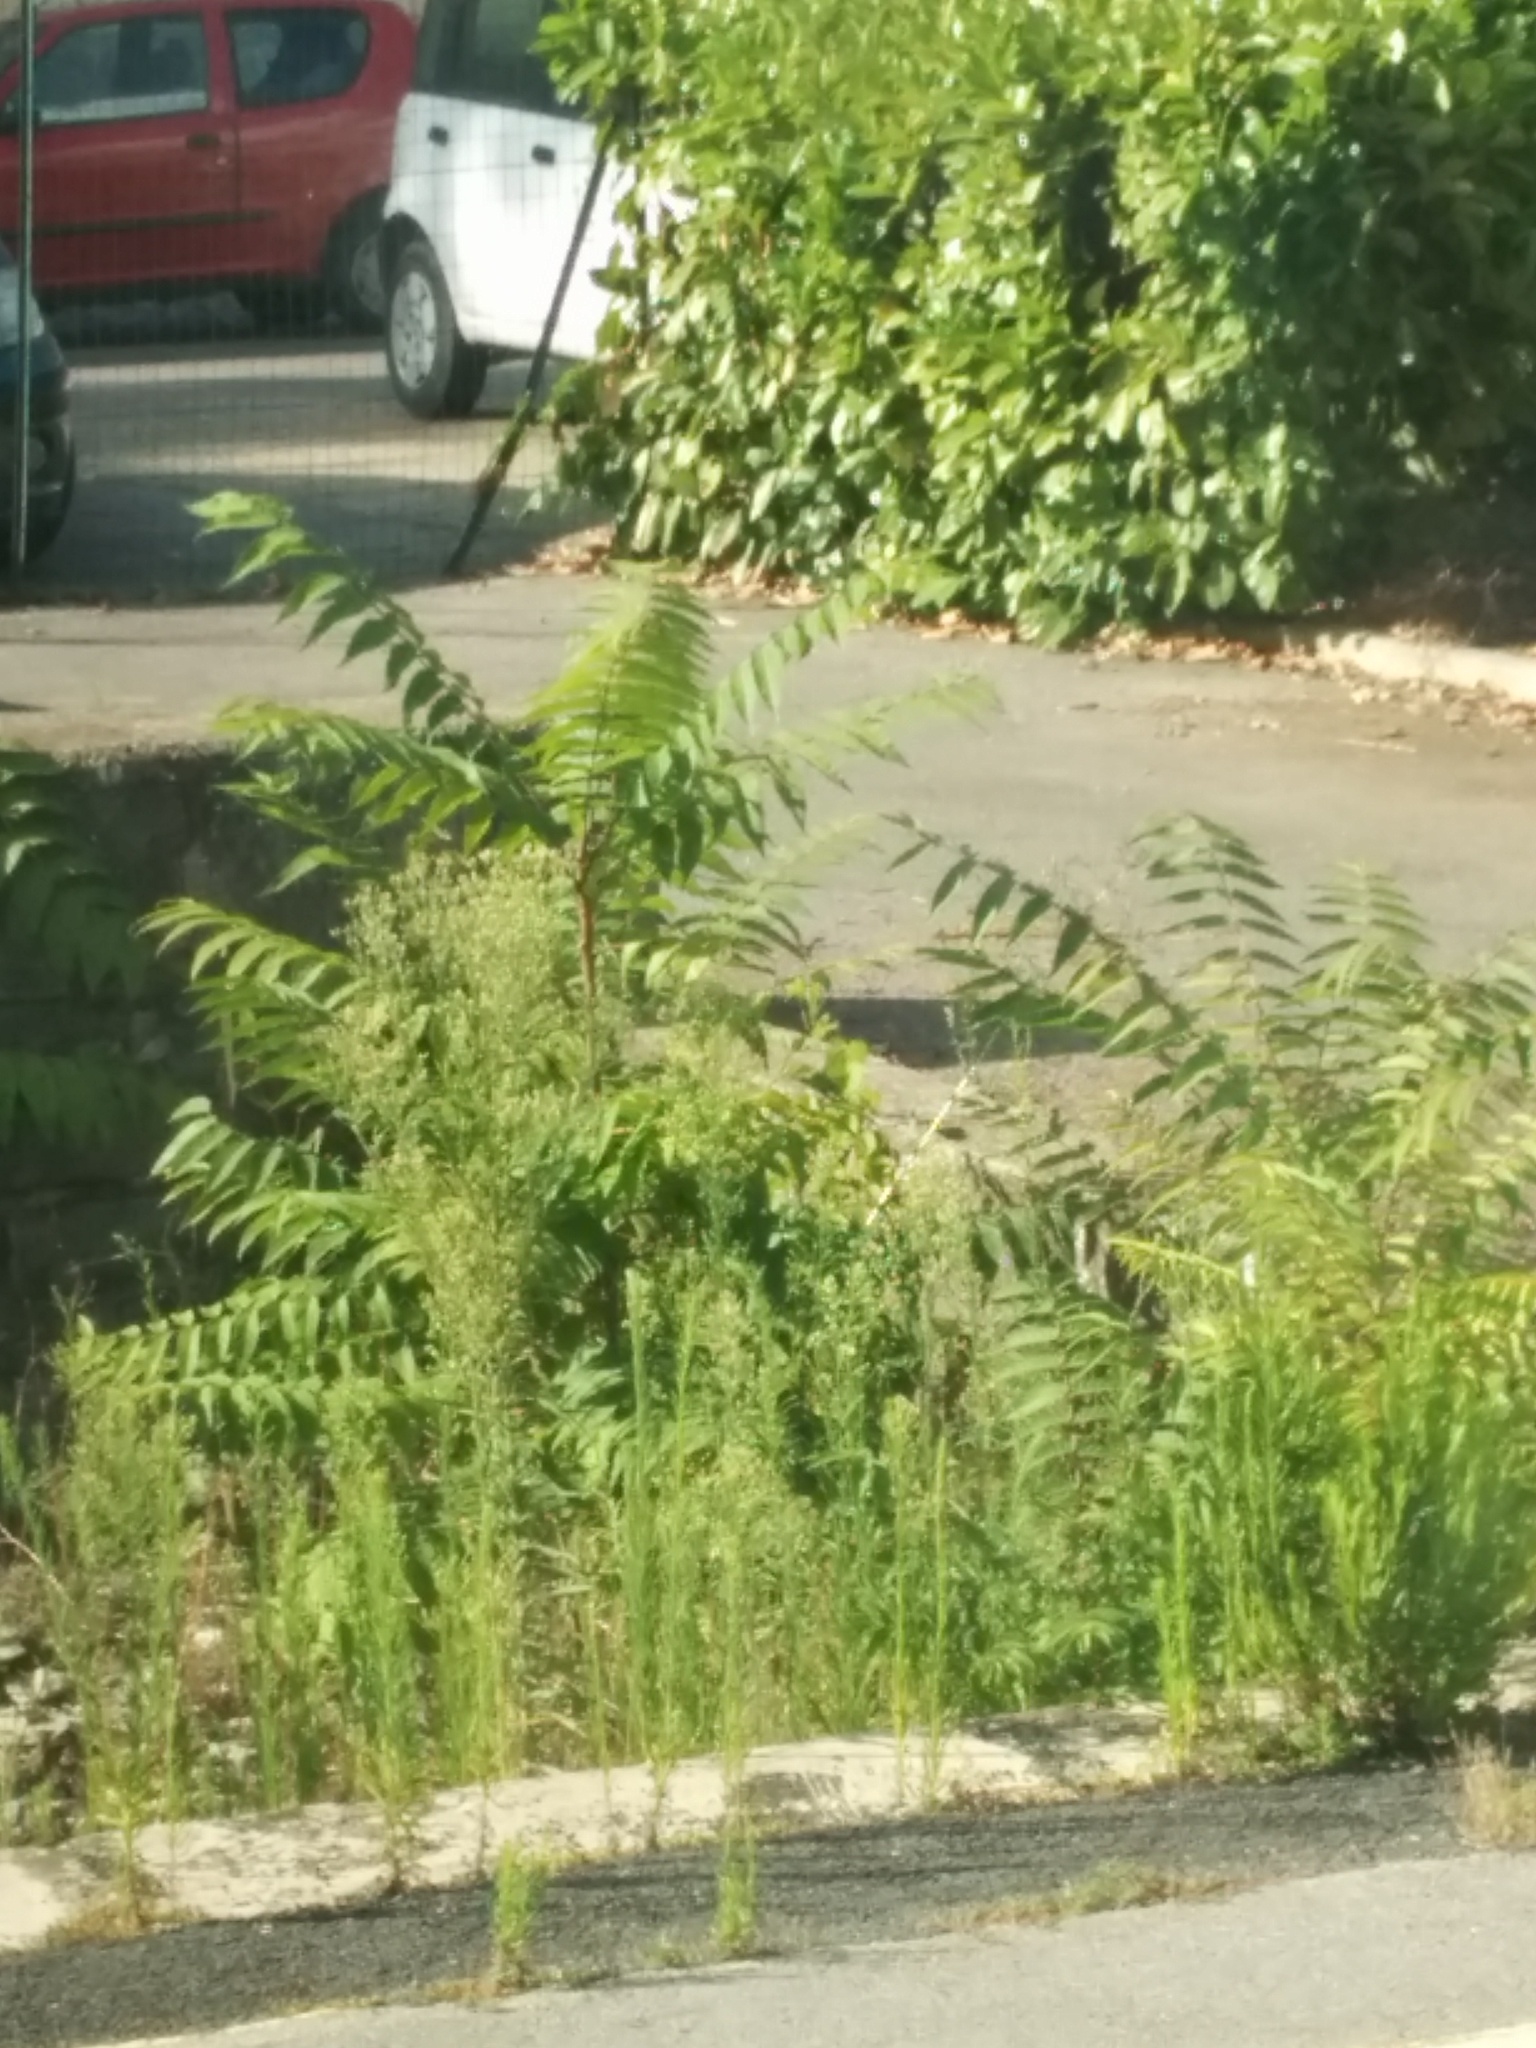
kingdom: Plantae
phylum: Tracheophyta
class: Magnoliopsida
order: Sapindales
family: Simaroubaceae
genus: Ailanthus
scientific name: Ailanthus altissima
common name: Tree-of-heaven
